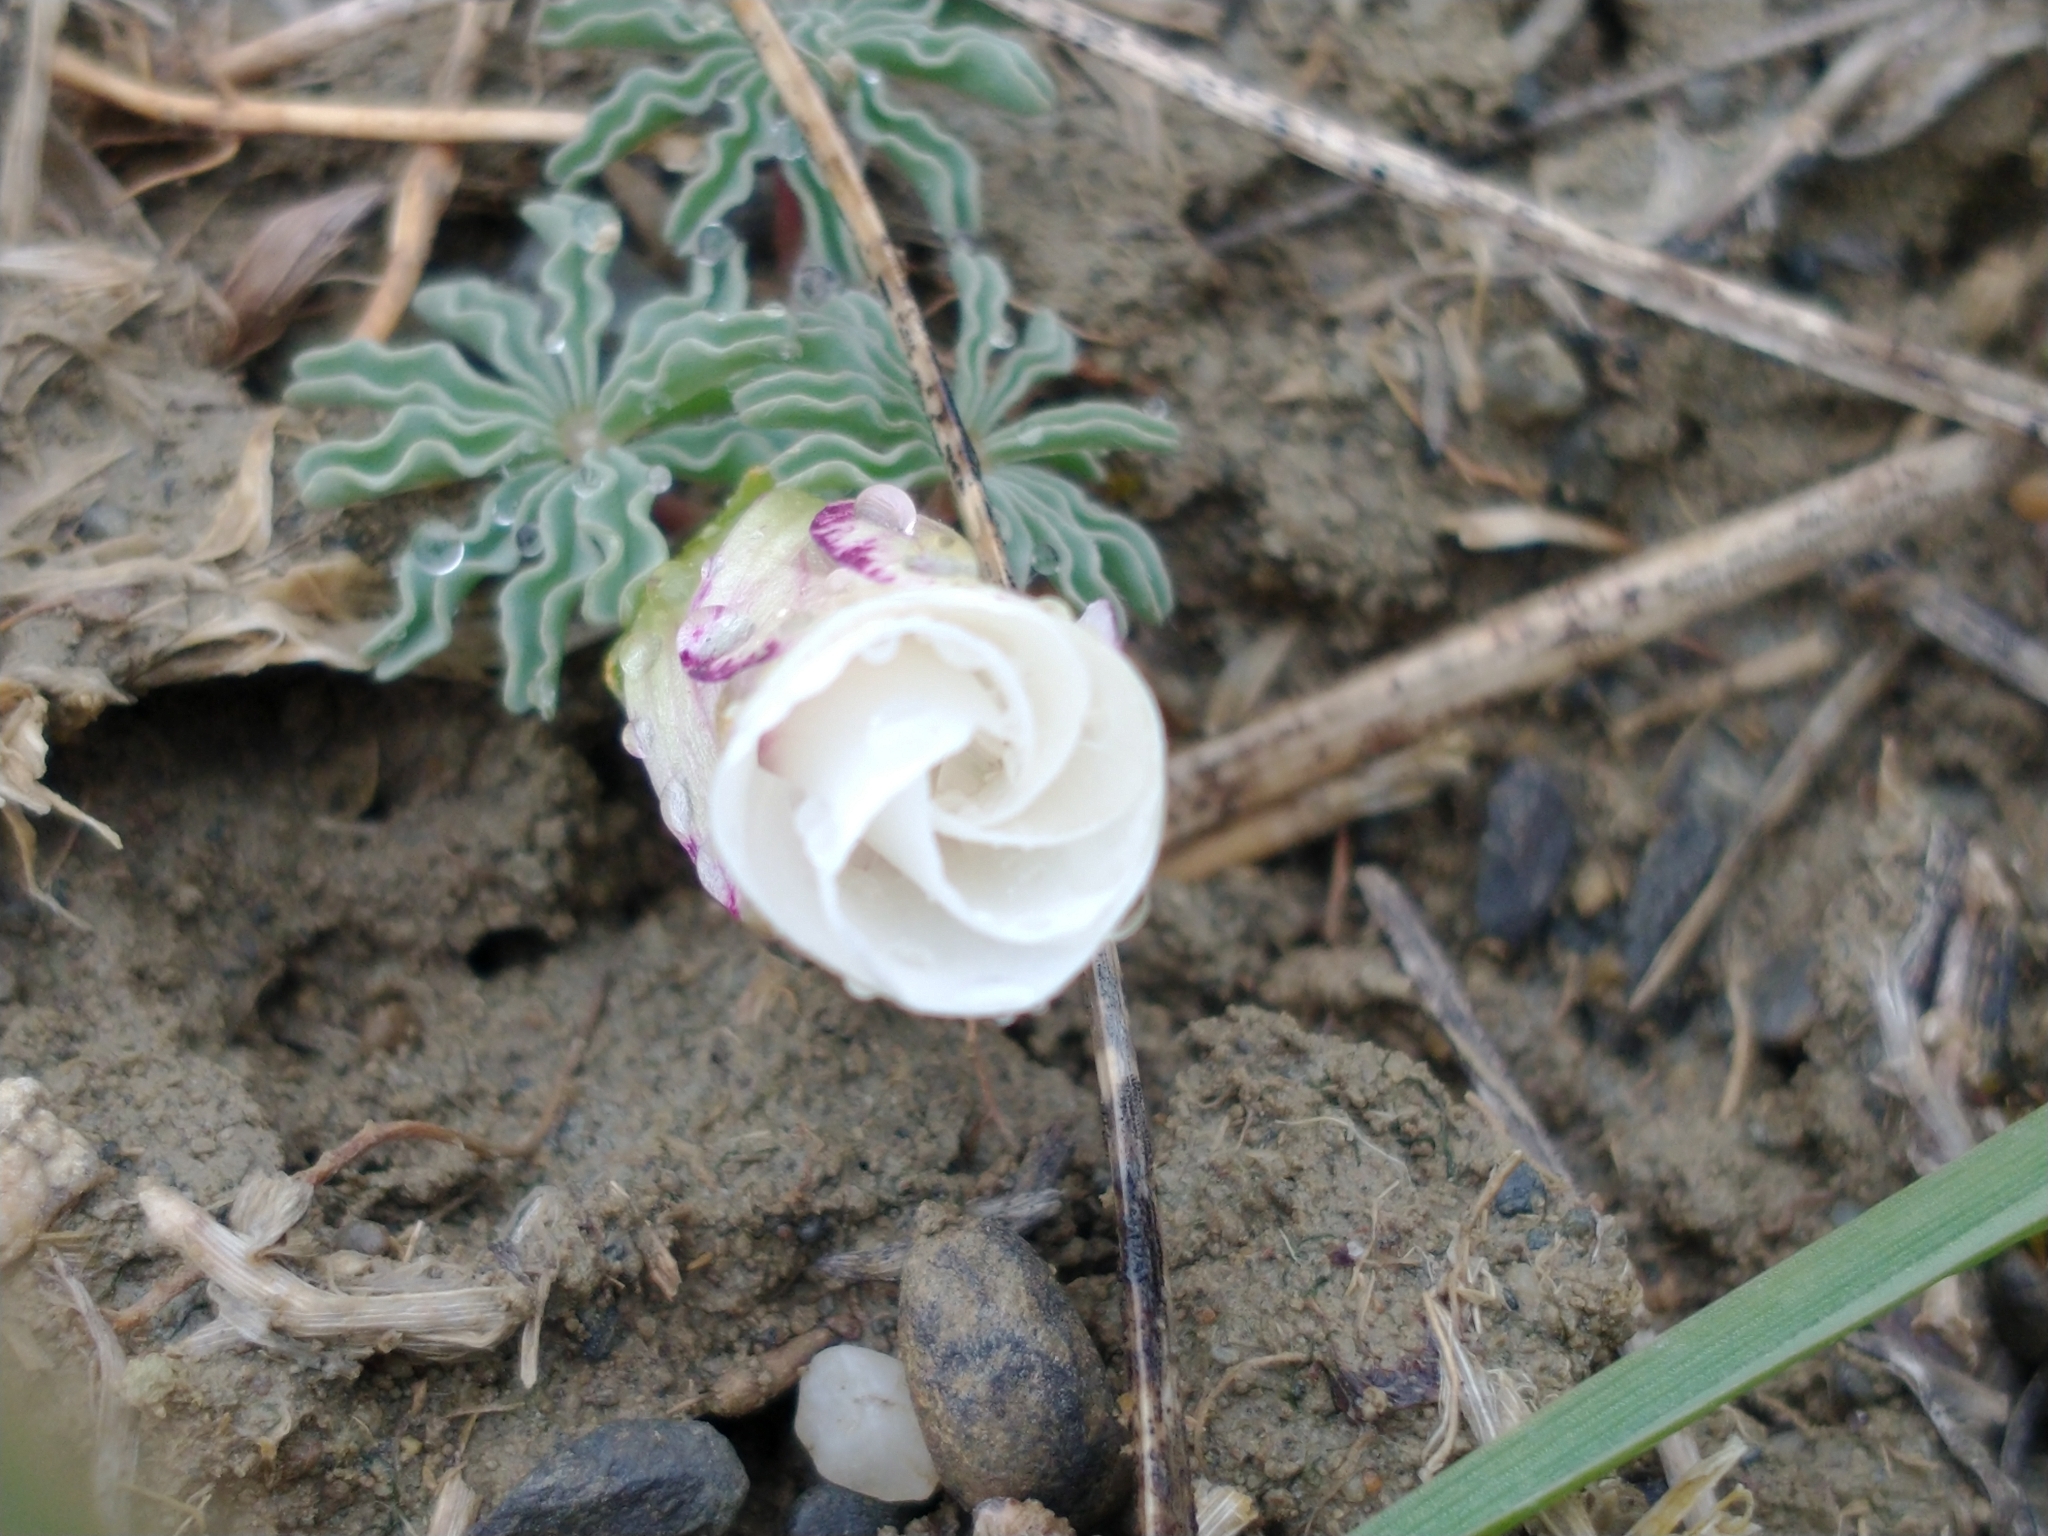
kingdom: Plantae
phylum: Tracheophyta
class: Magnoliopsida
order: Oxalidales
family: Oxalidaceae
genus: Oxalis
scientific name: Oxalis laciniata
